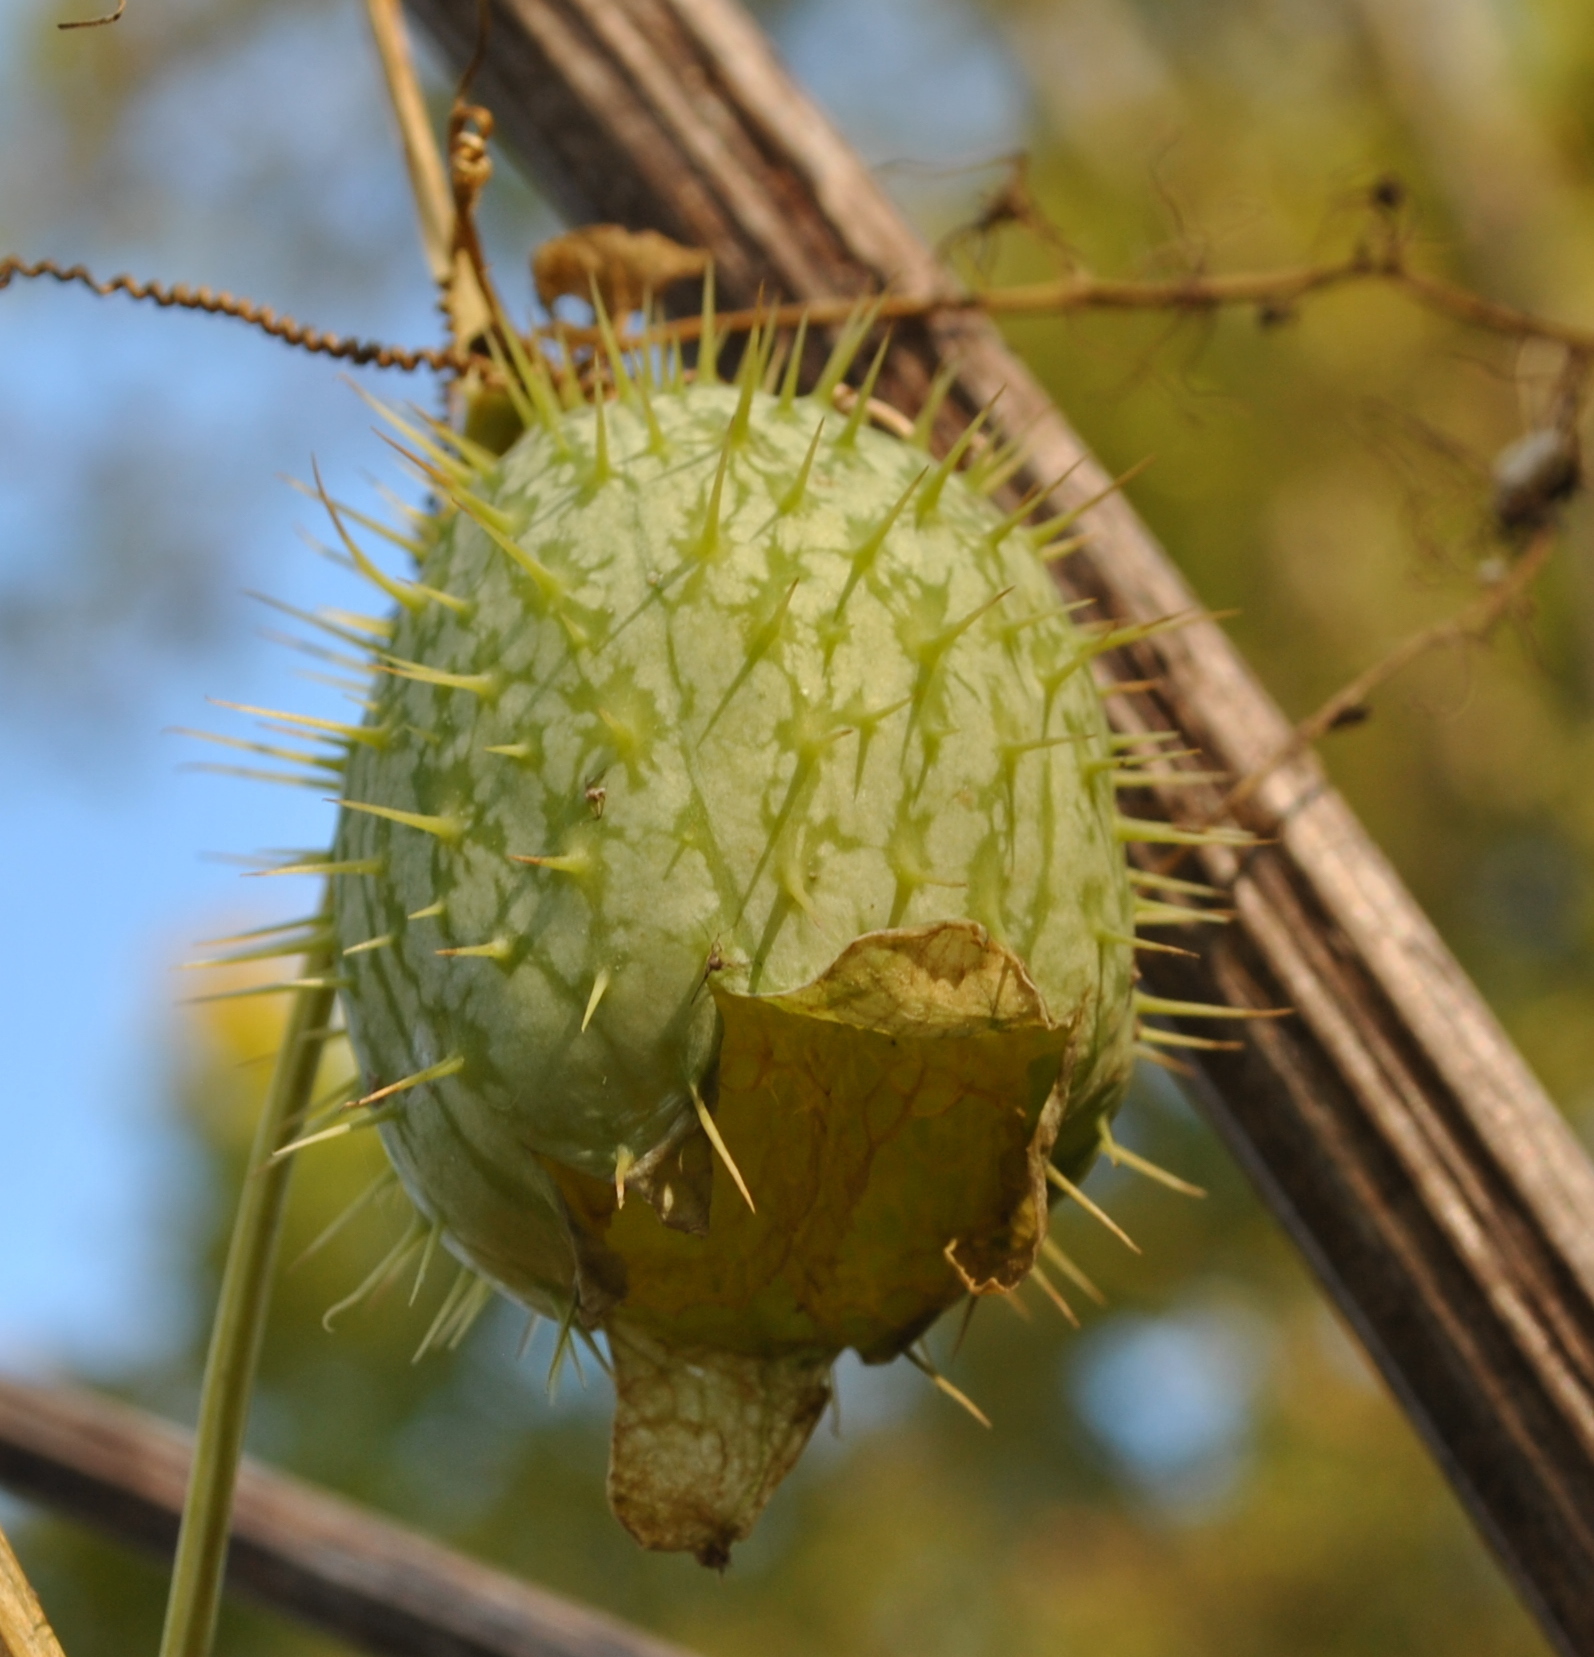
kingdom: Plantae
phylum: Tracheophyta
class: Magnoliopsida
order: Cucurbitales
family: Cucurbitaceae
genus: Echinocystis
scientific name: Echinocystis lobata
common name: Wild cucumber
